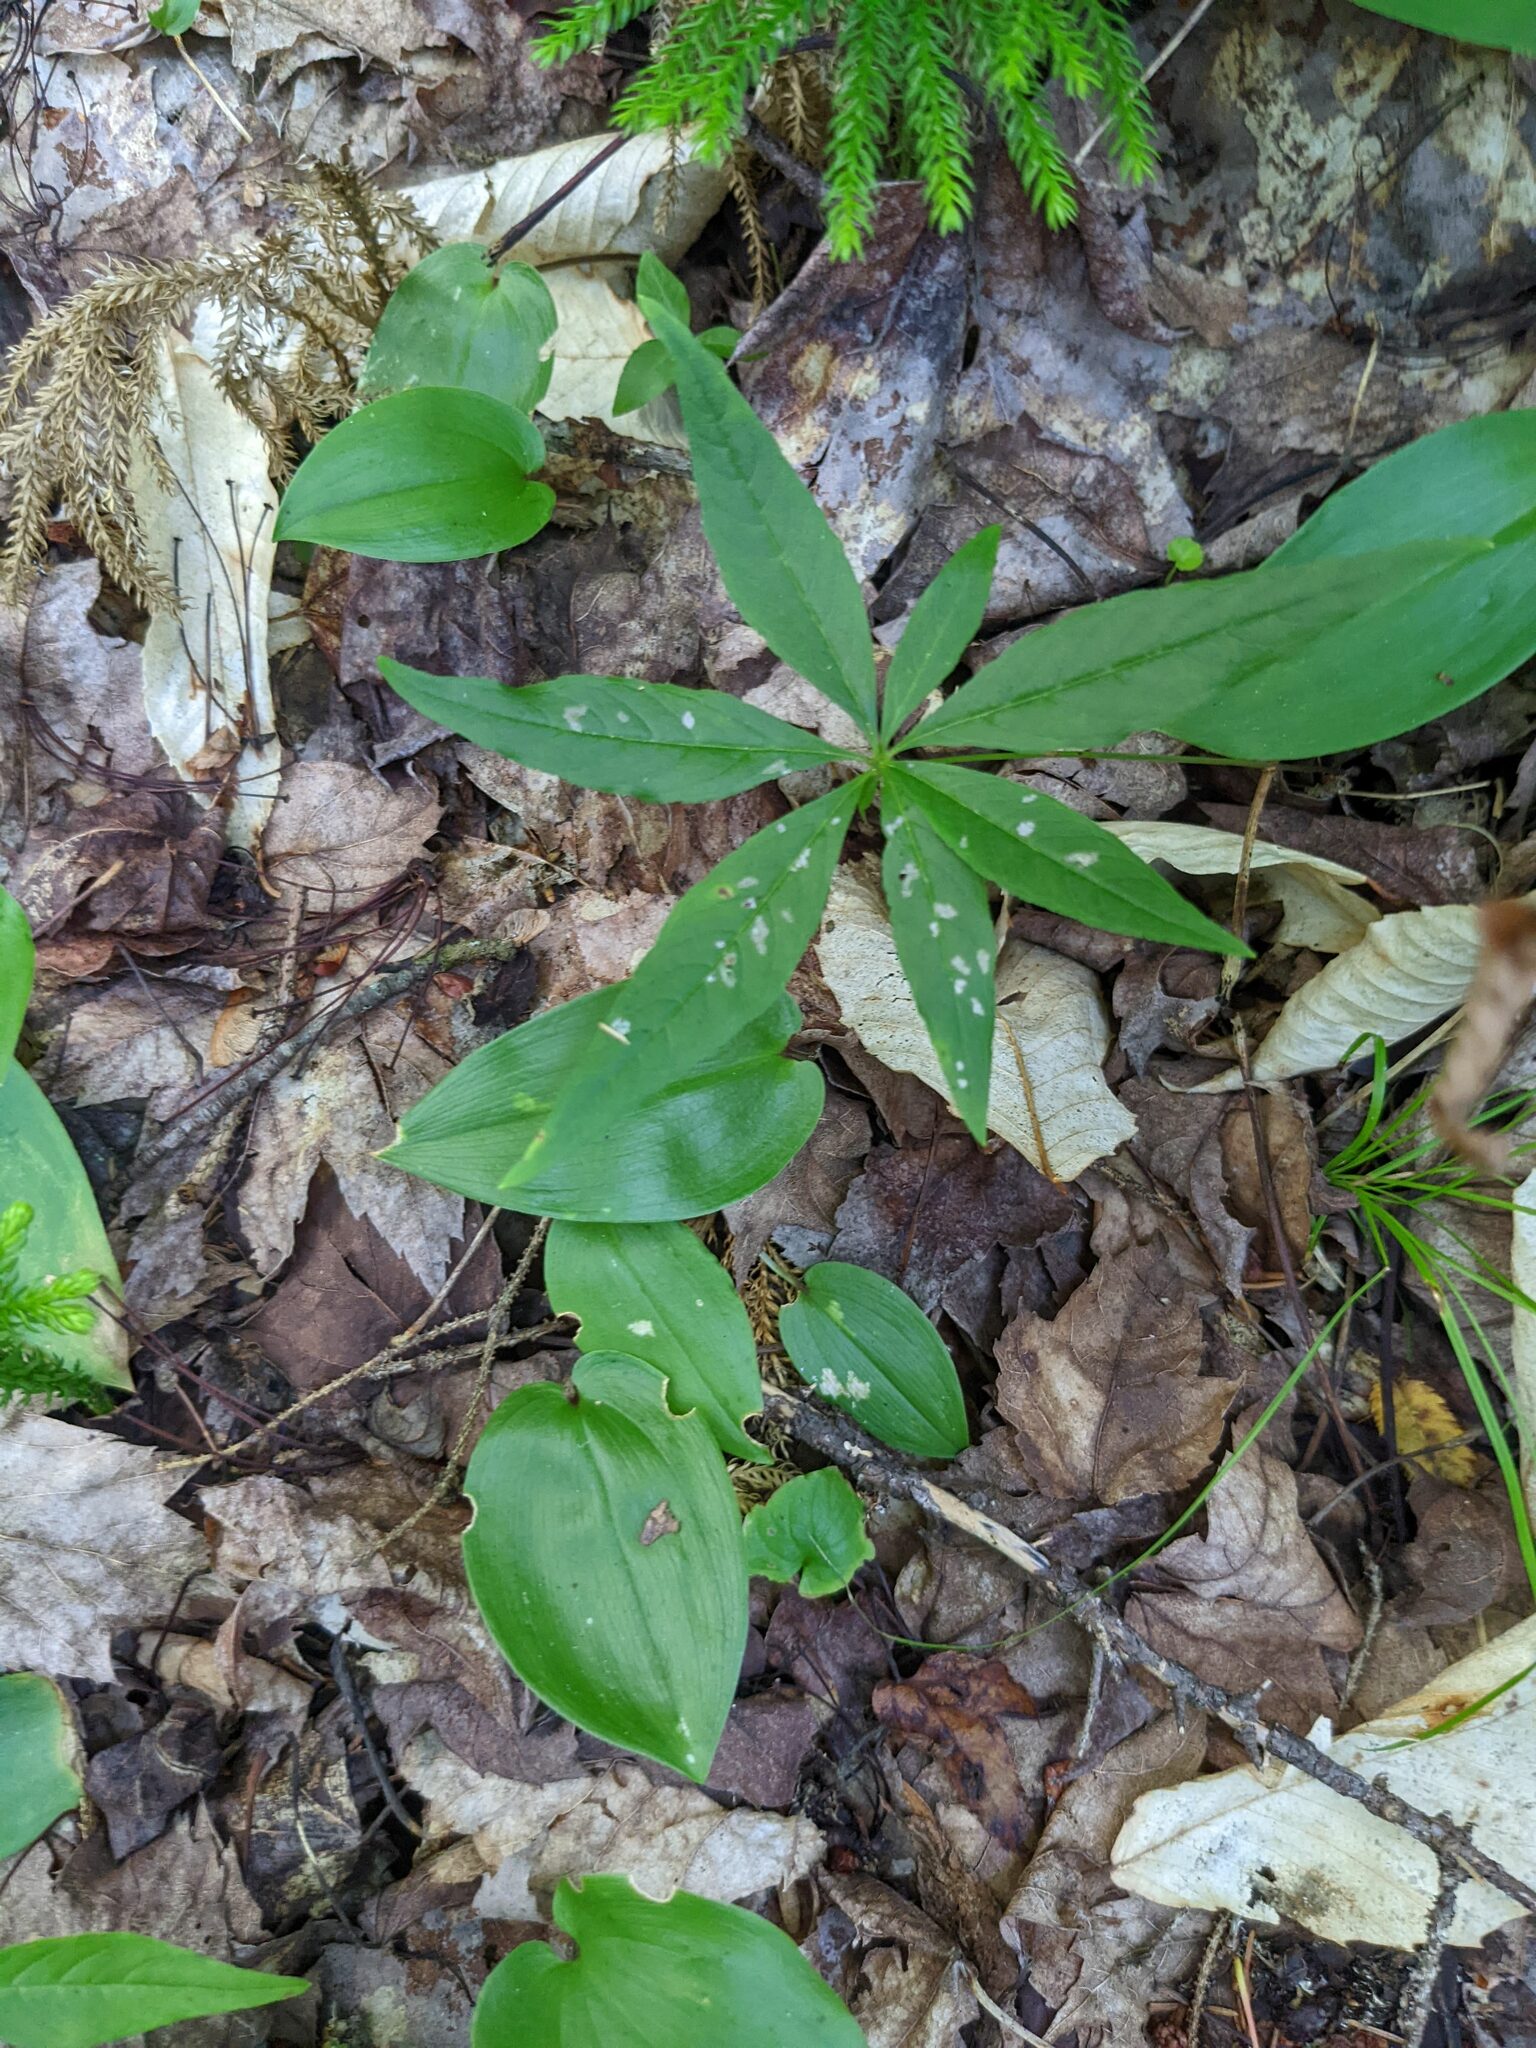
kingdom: Plantae
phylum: Tracheophyta
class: Liliopsida
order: Asparagales
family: Asparagaceae
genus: Maianthemum
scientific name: Maianthemum canadense
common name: False lily-of-the-valley
